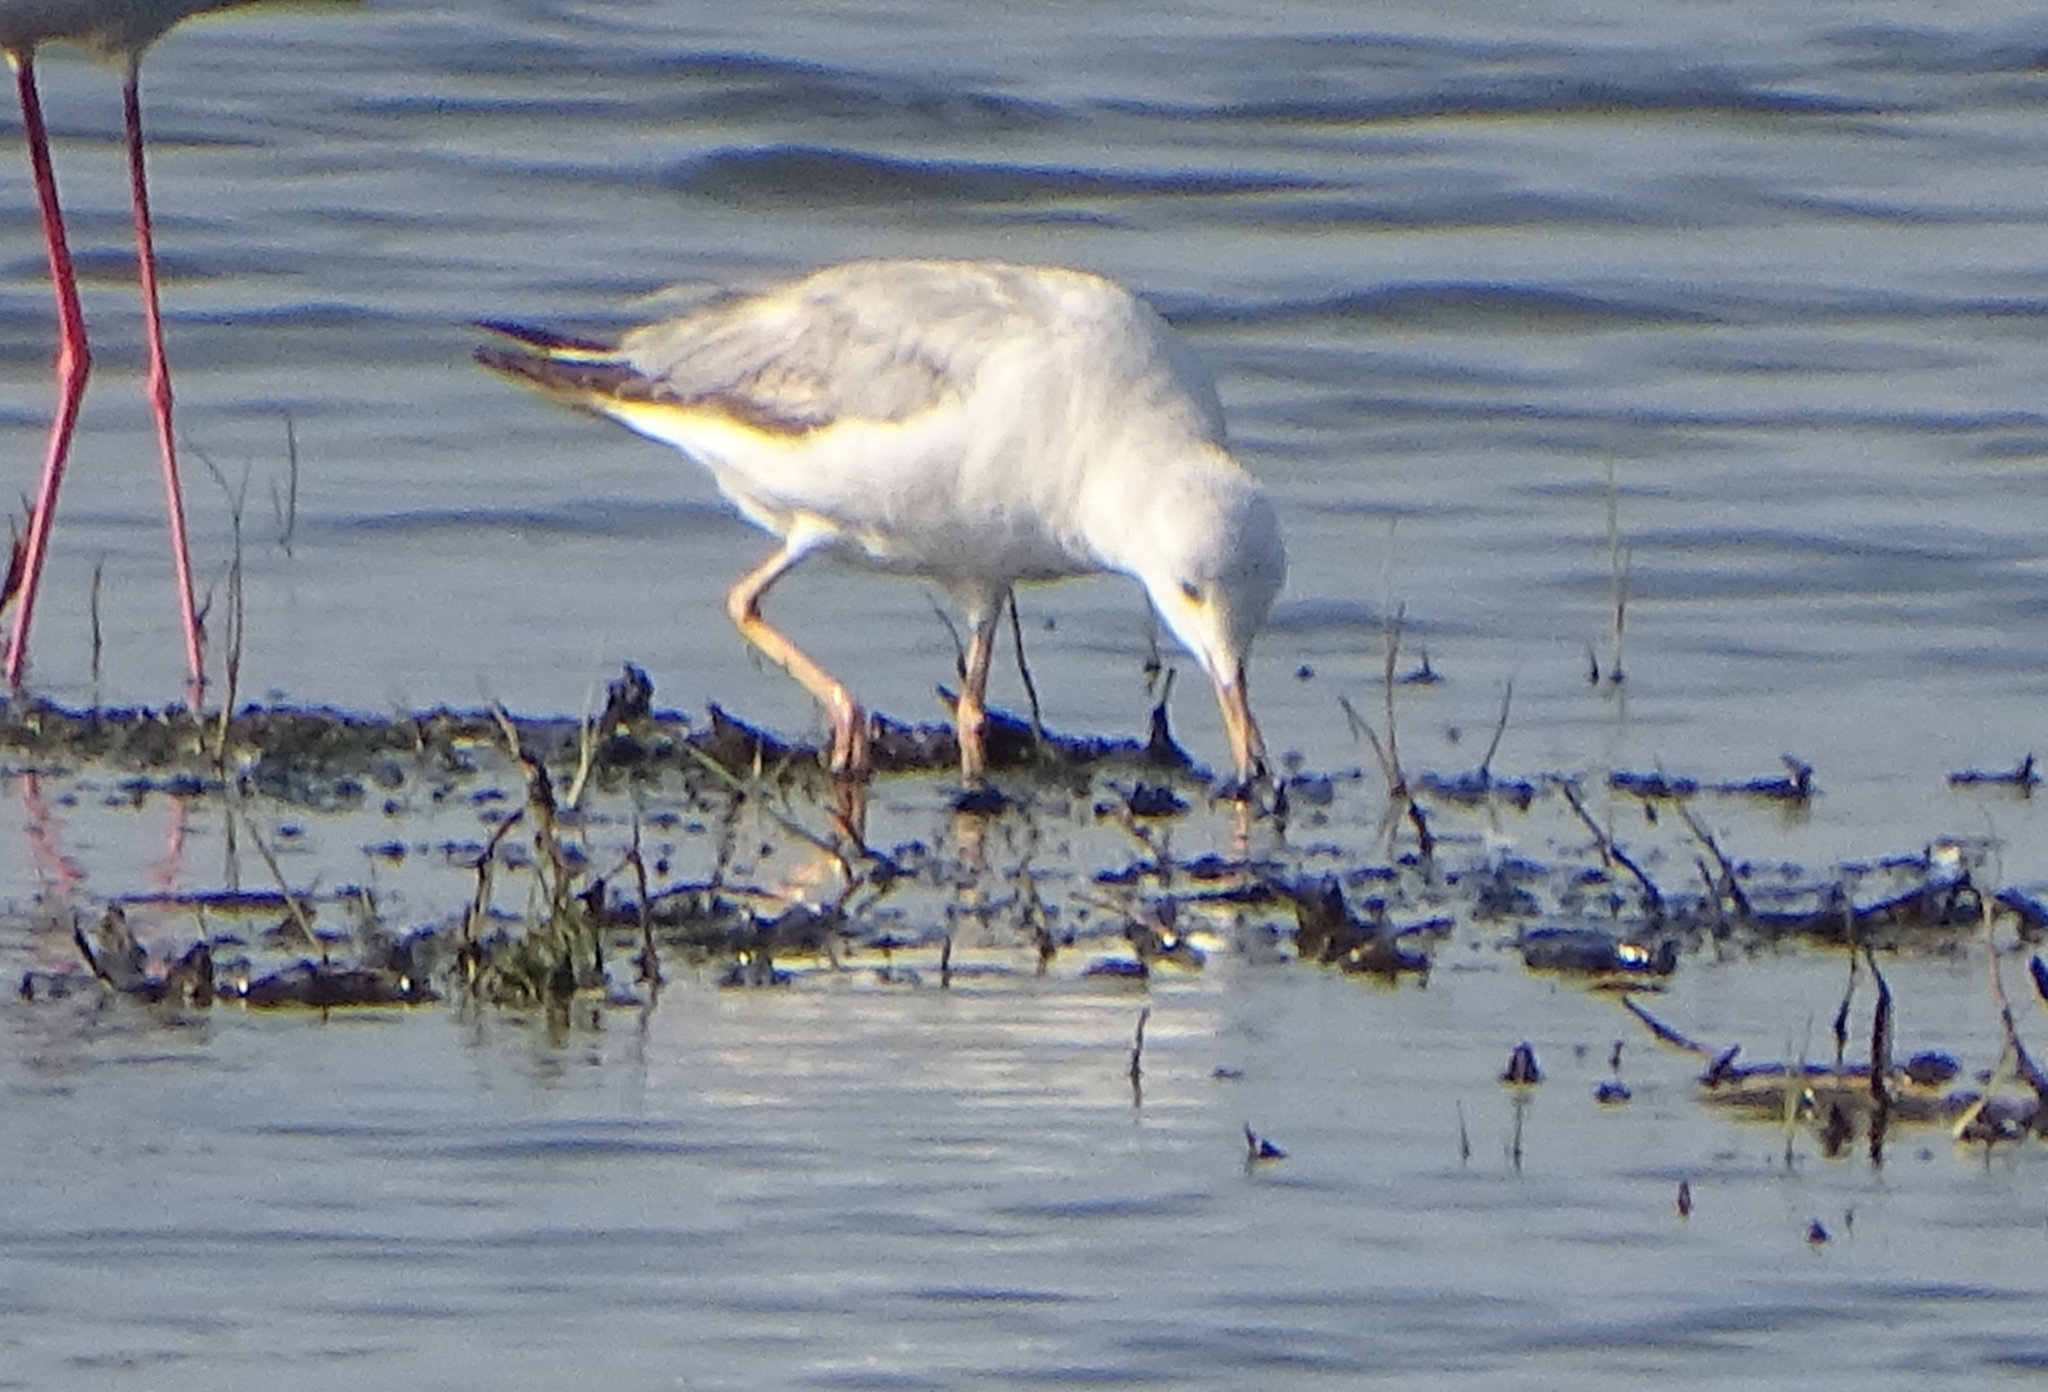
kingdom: Animalia
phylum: Chordata
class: Aves
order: Charadriiformes
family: Laridae
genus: Chroicocephalus
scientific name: Chroicocephalus genei
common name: Slender-billed gull
